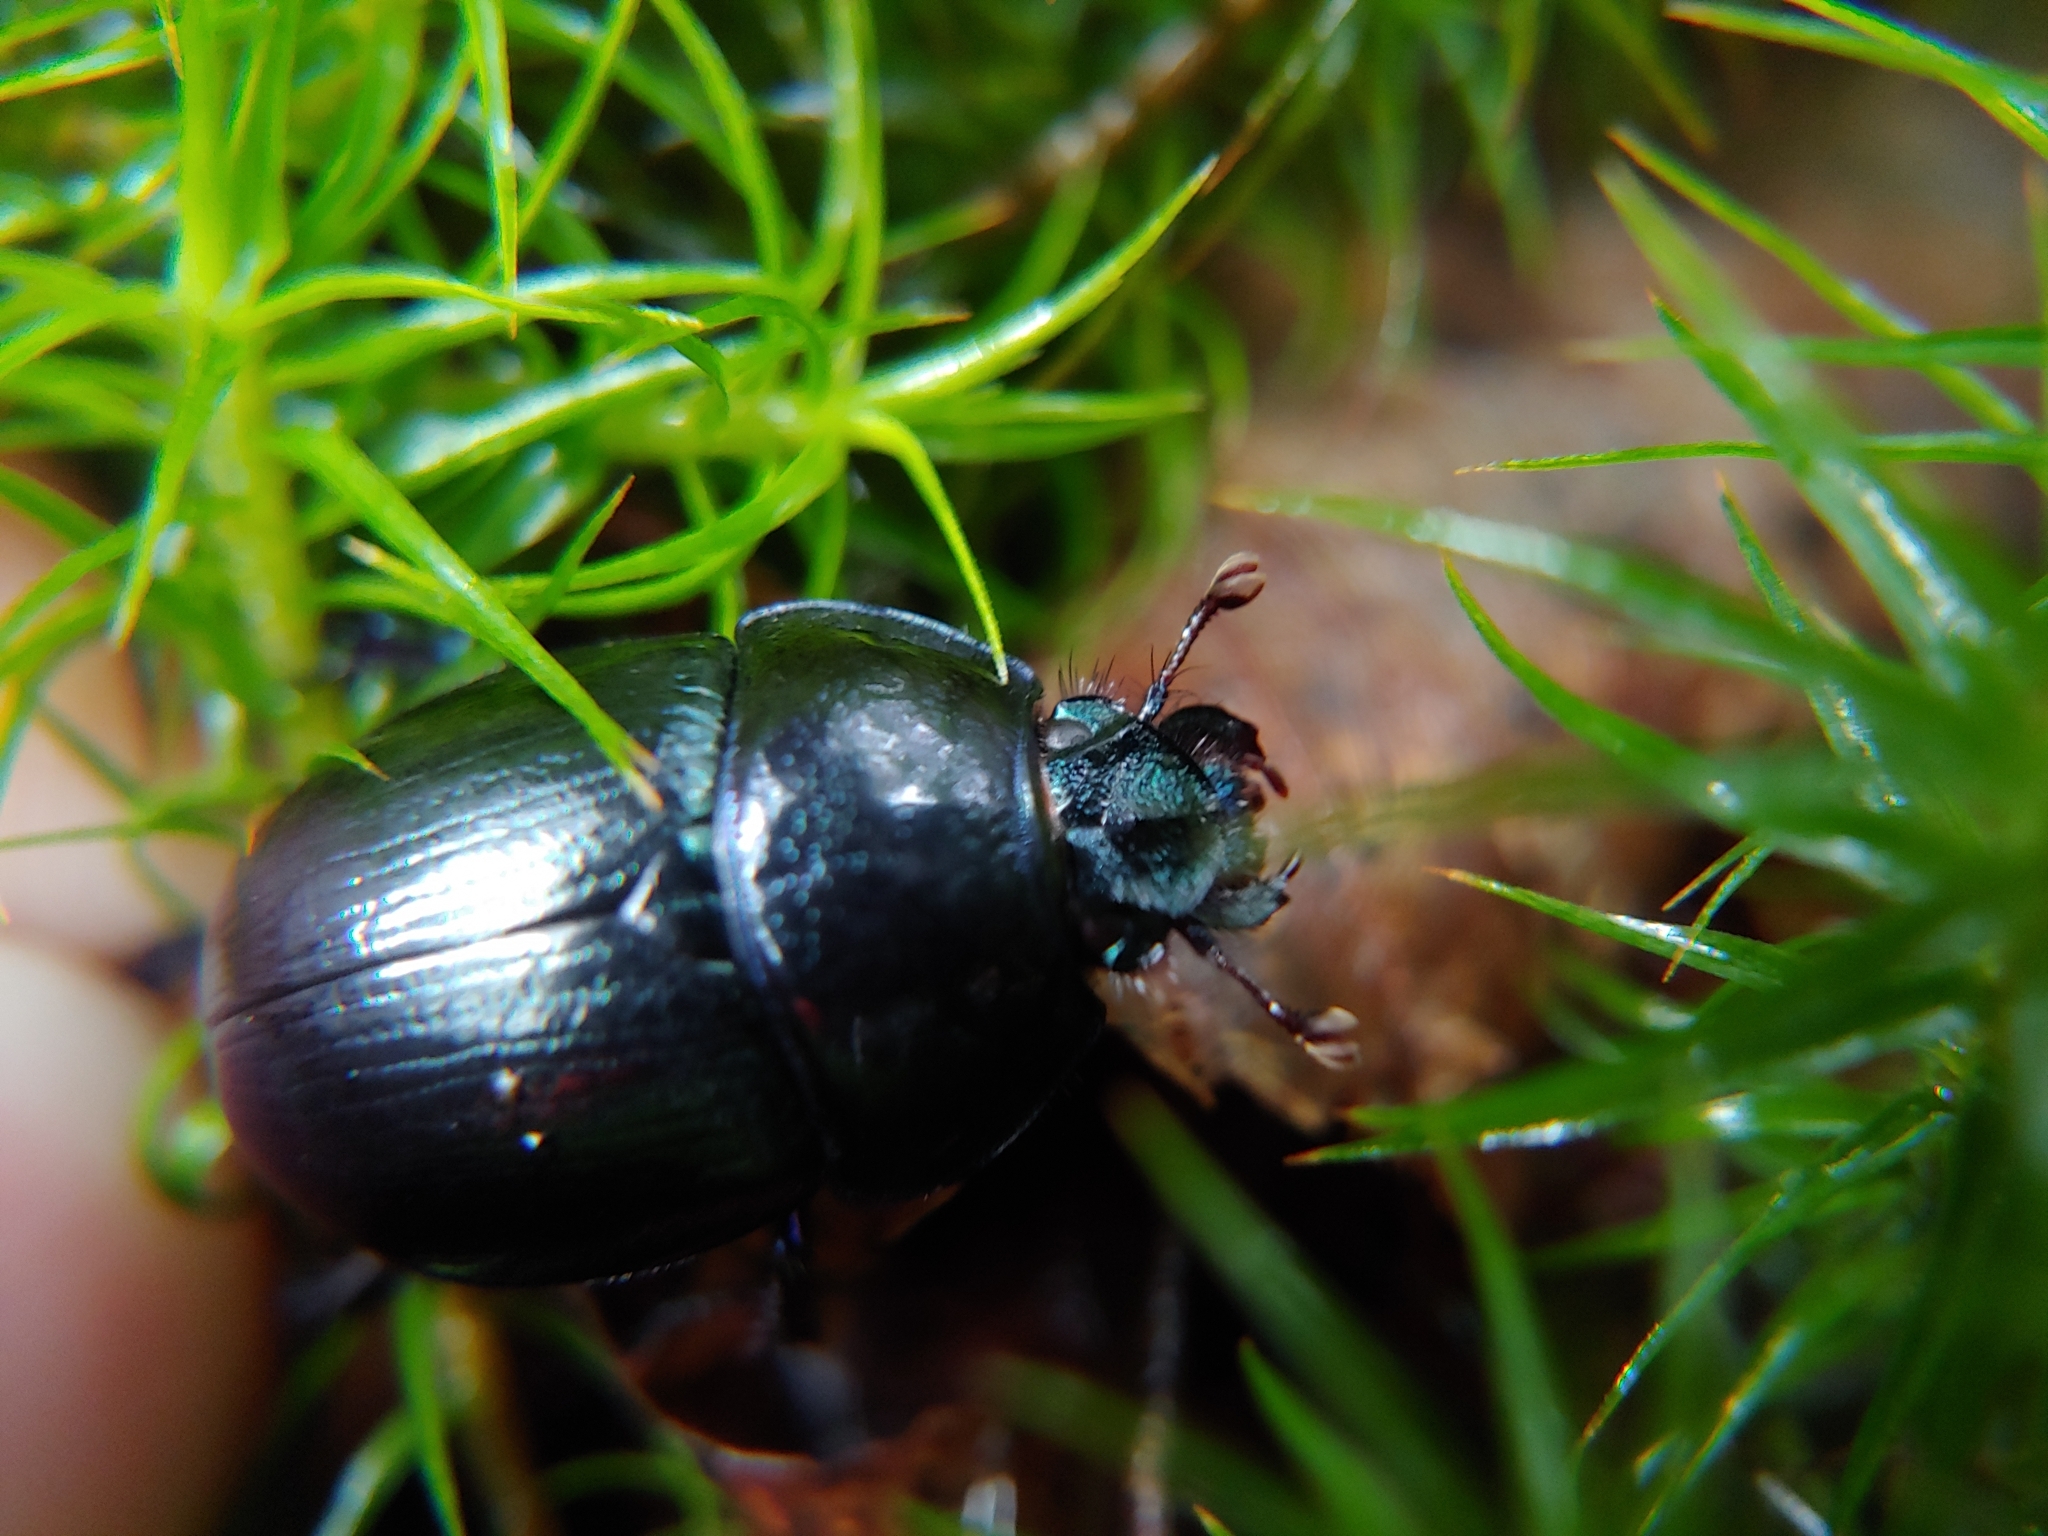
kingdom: Animalia
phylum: Arthropoda
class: Insecta
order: Coleoptera
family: Geotrupidae
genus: Anoplotrupes
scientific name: Anoplotrupes stercorosus
